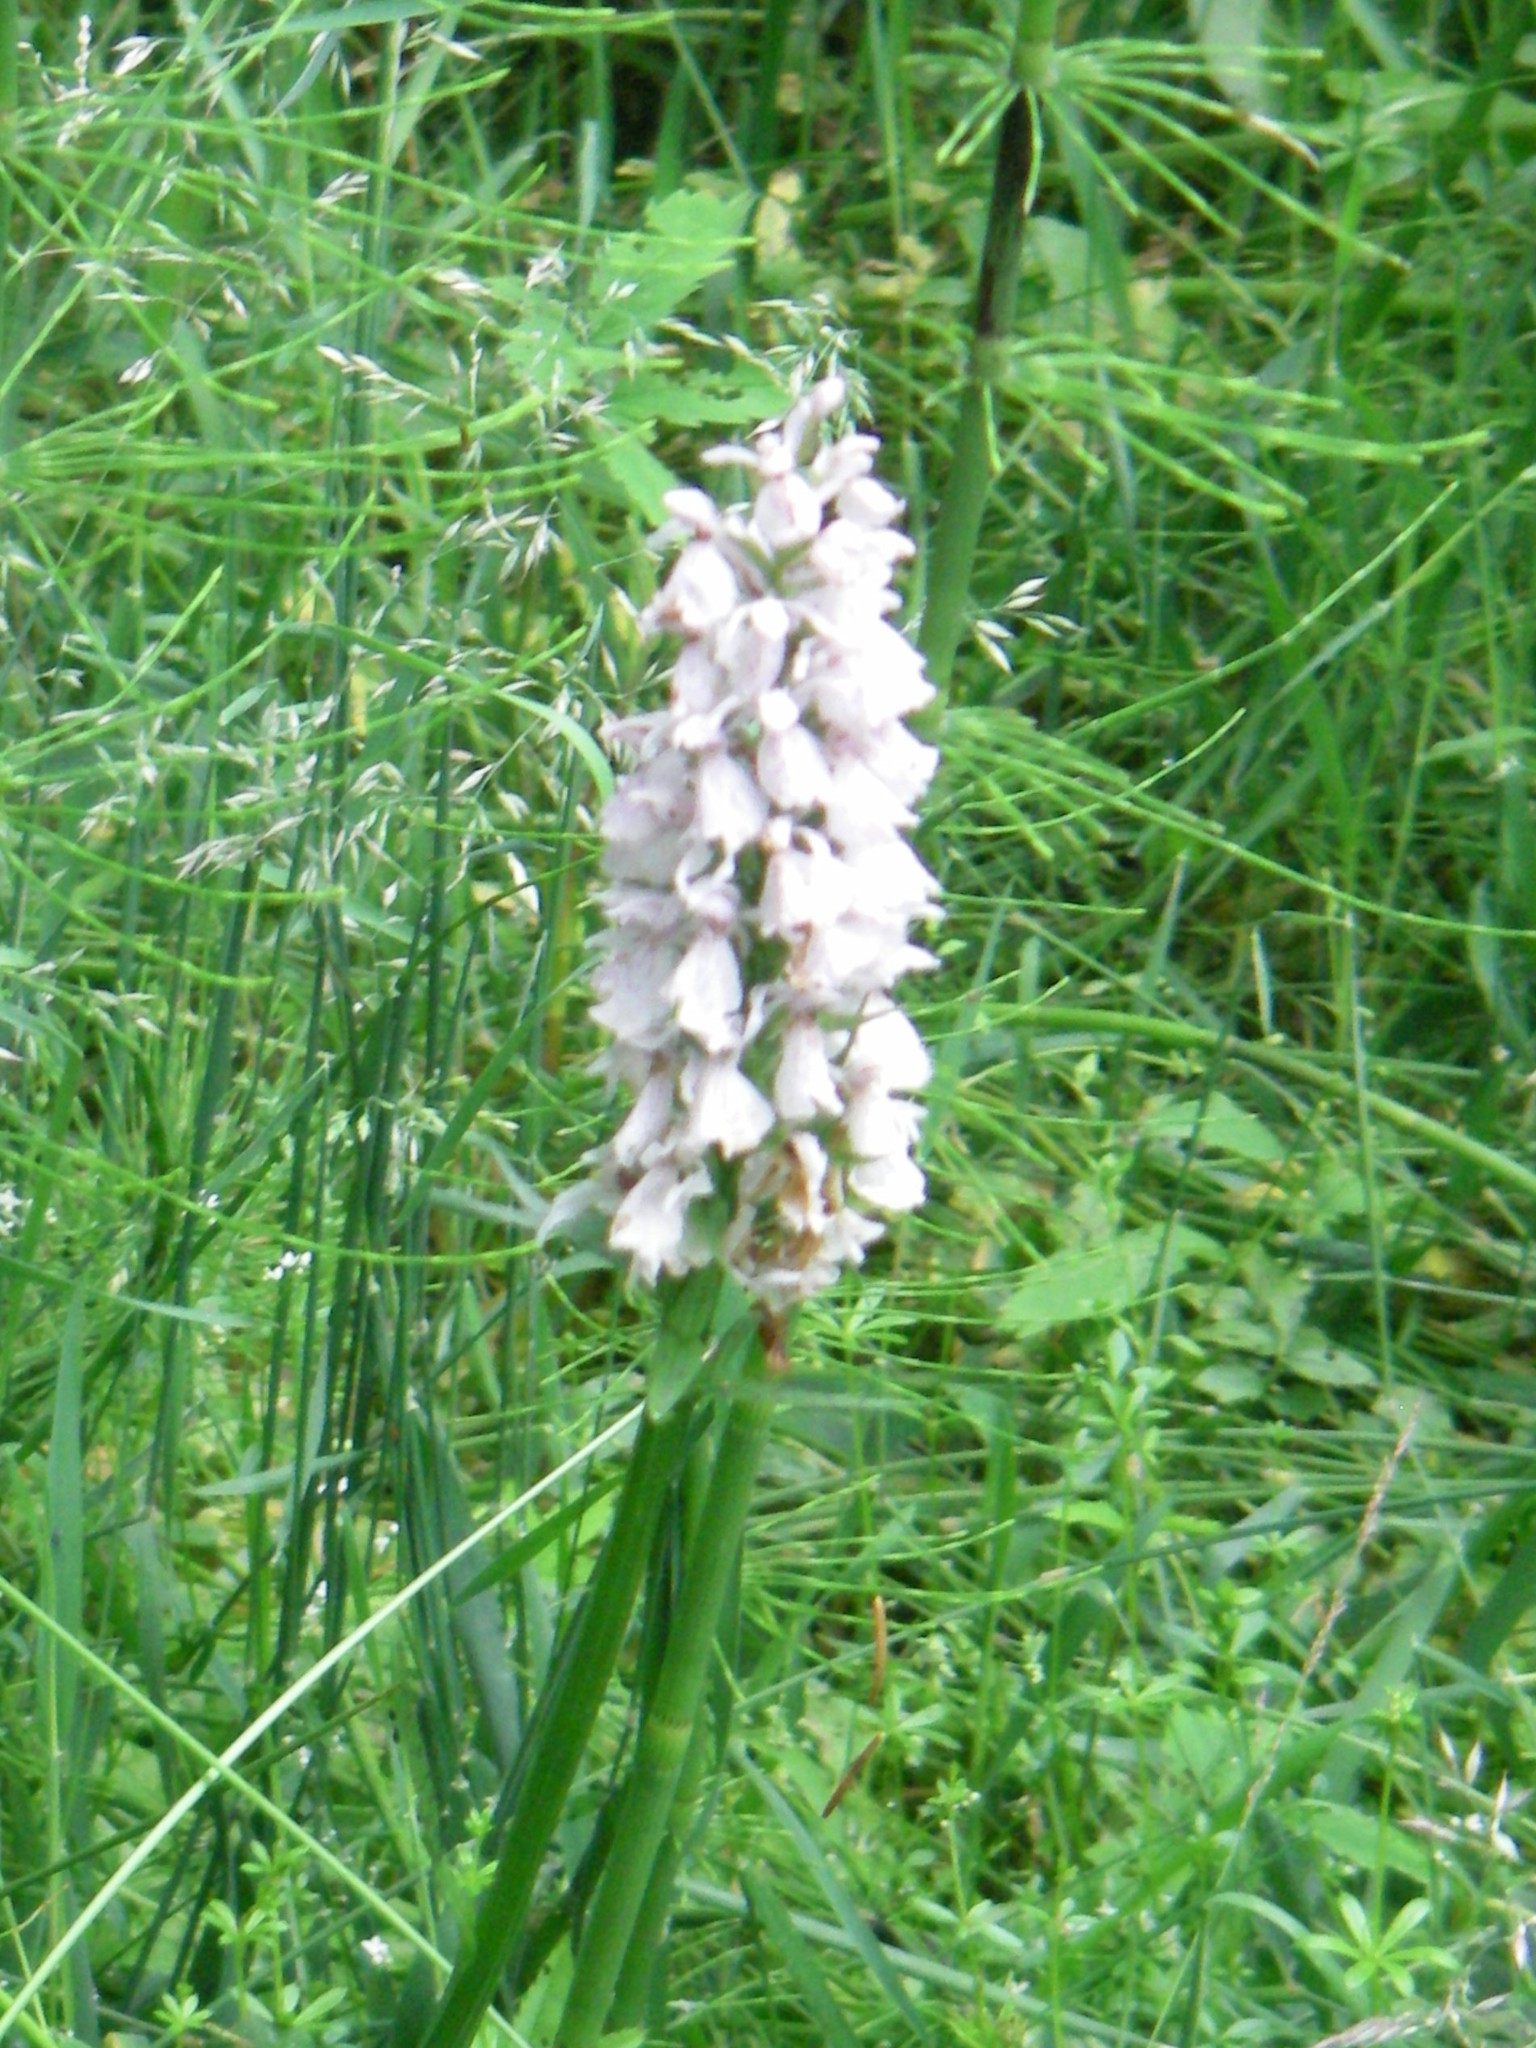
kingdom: Plantae
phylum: Tracheophyta
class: Liliopsida
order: Asparagales
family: Orchidaceae
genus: Dactylorhiza
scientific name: Dactylorhiza maculata
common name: Heath spotted-orchid
